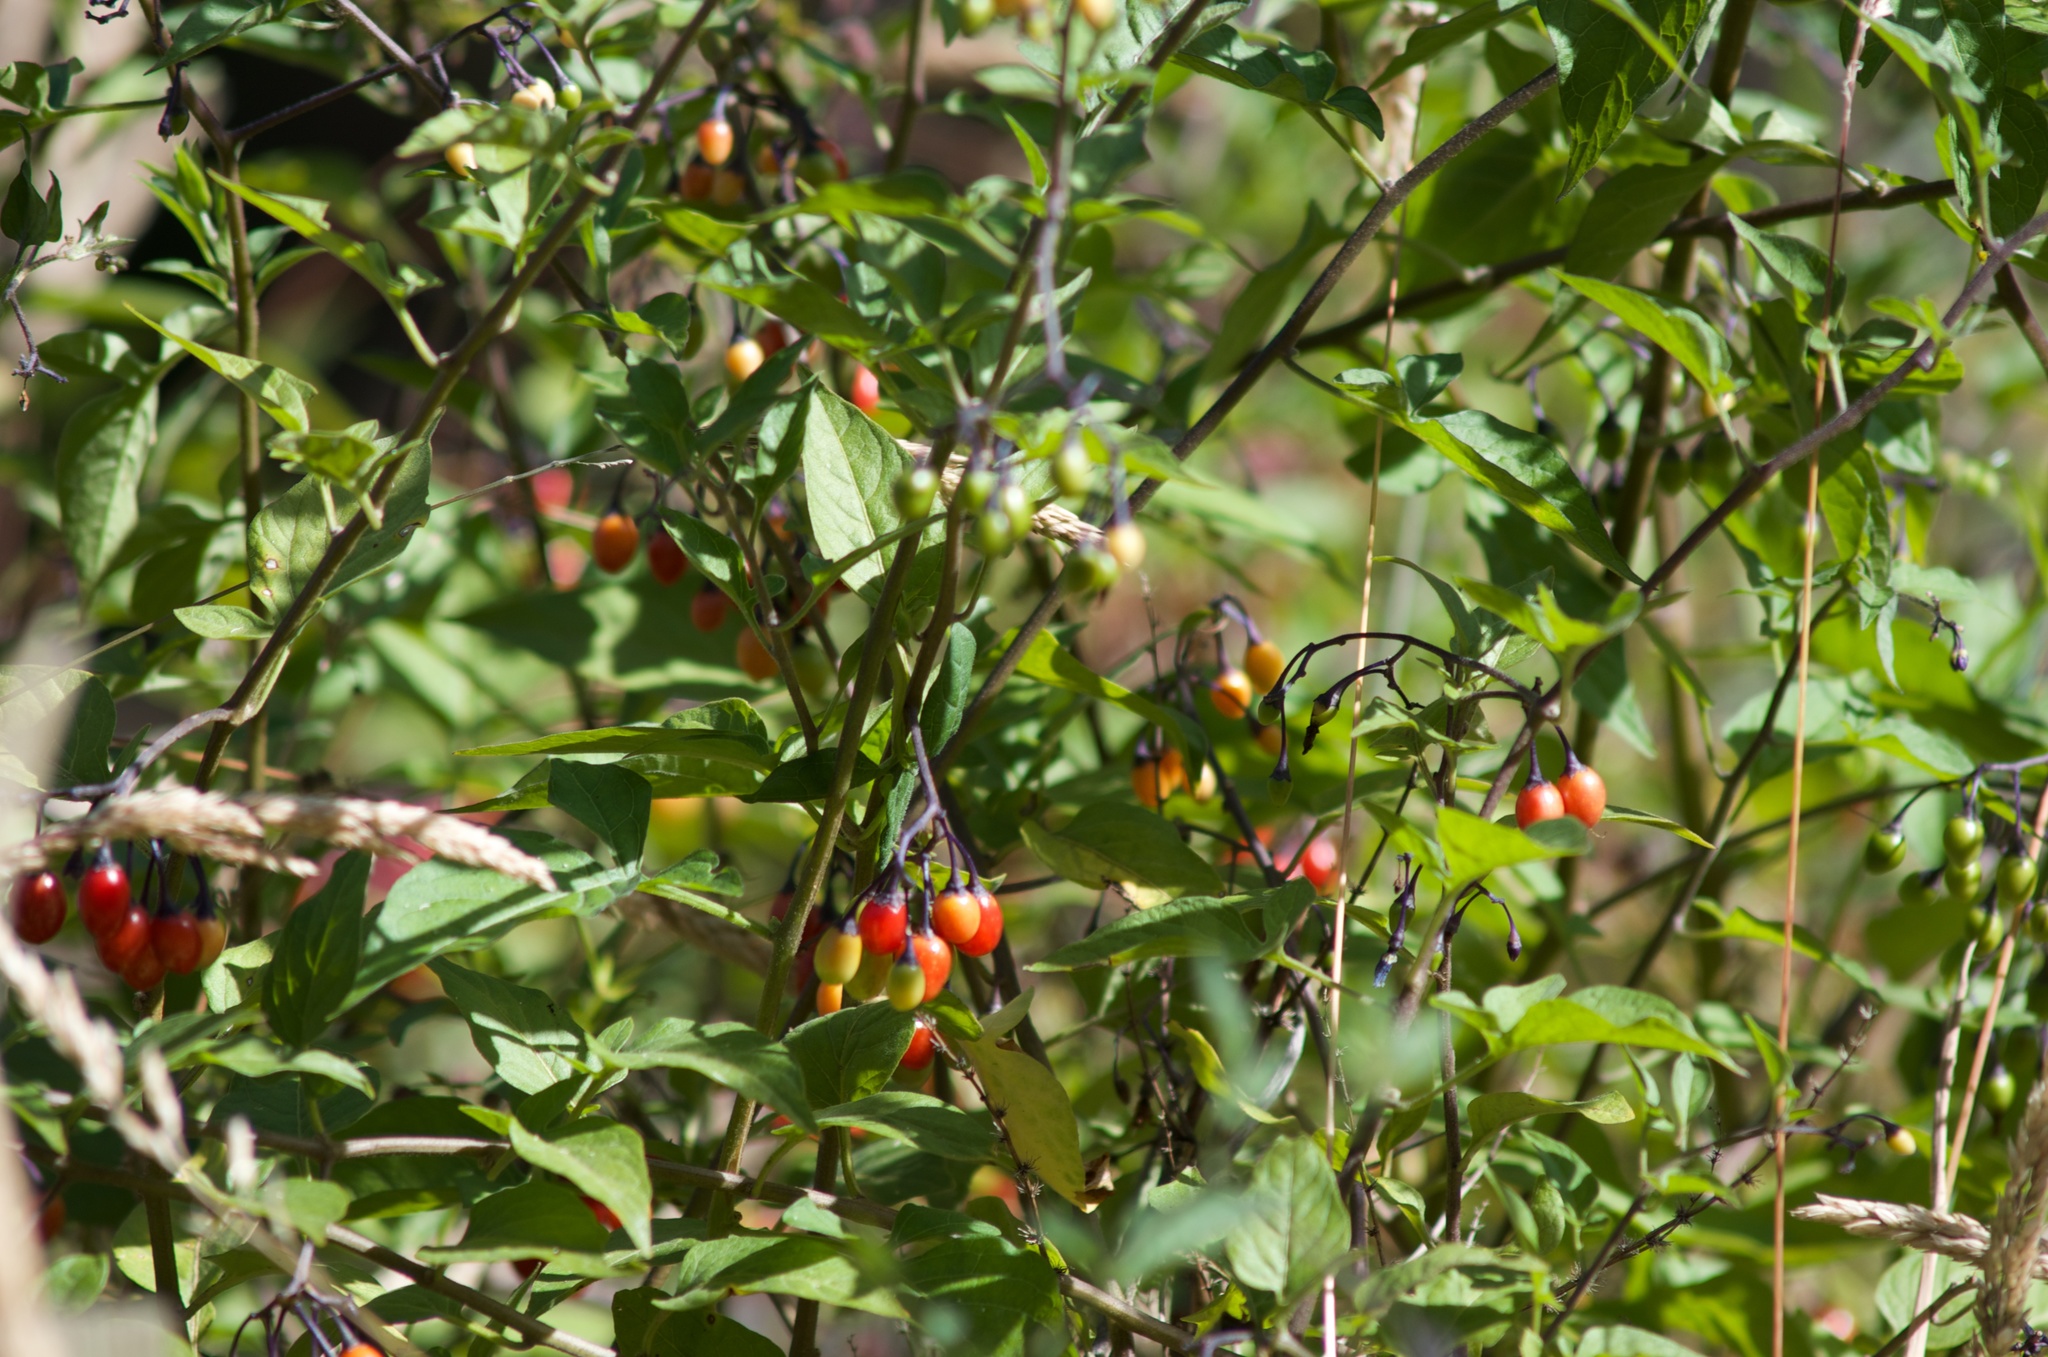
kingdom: Plantae
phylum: Tracheophyta
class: Magnoliopsida
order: Solanales
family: Solanaceae
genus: Solanum
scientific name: Solanum dulcamara
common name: Climbing nightshade
